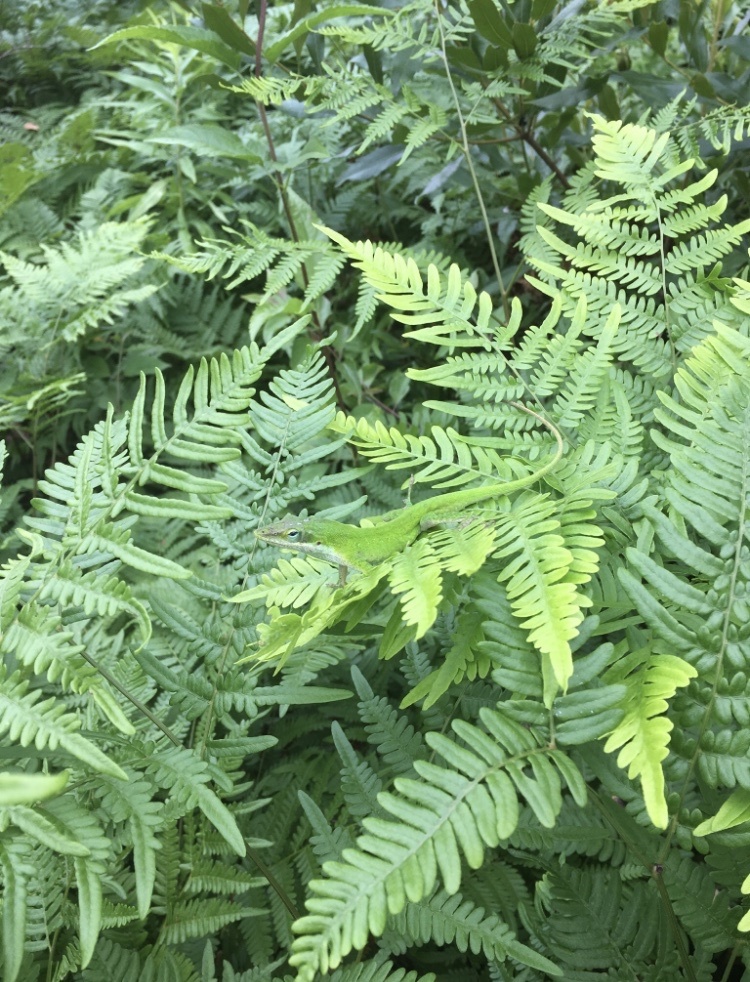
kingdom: Animalia
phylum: Chordata
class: Squamata
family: Dactyloidae
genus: Anolis
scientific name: Anolis carolinensis
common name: Green anole
